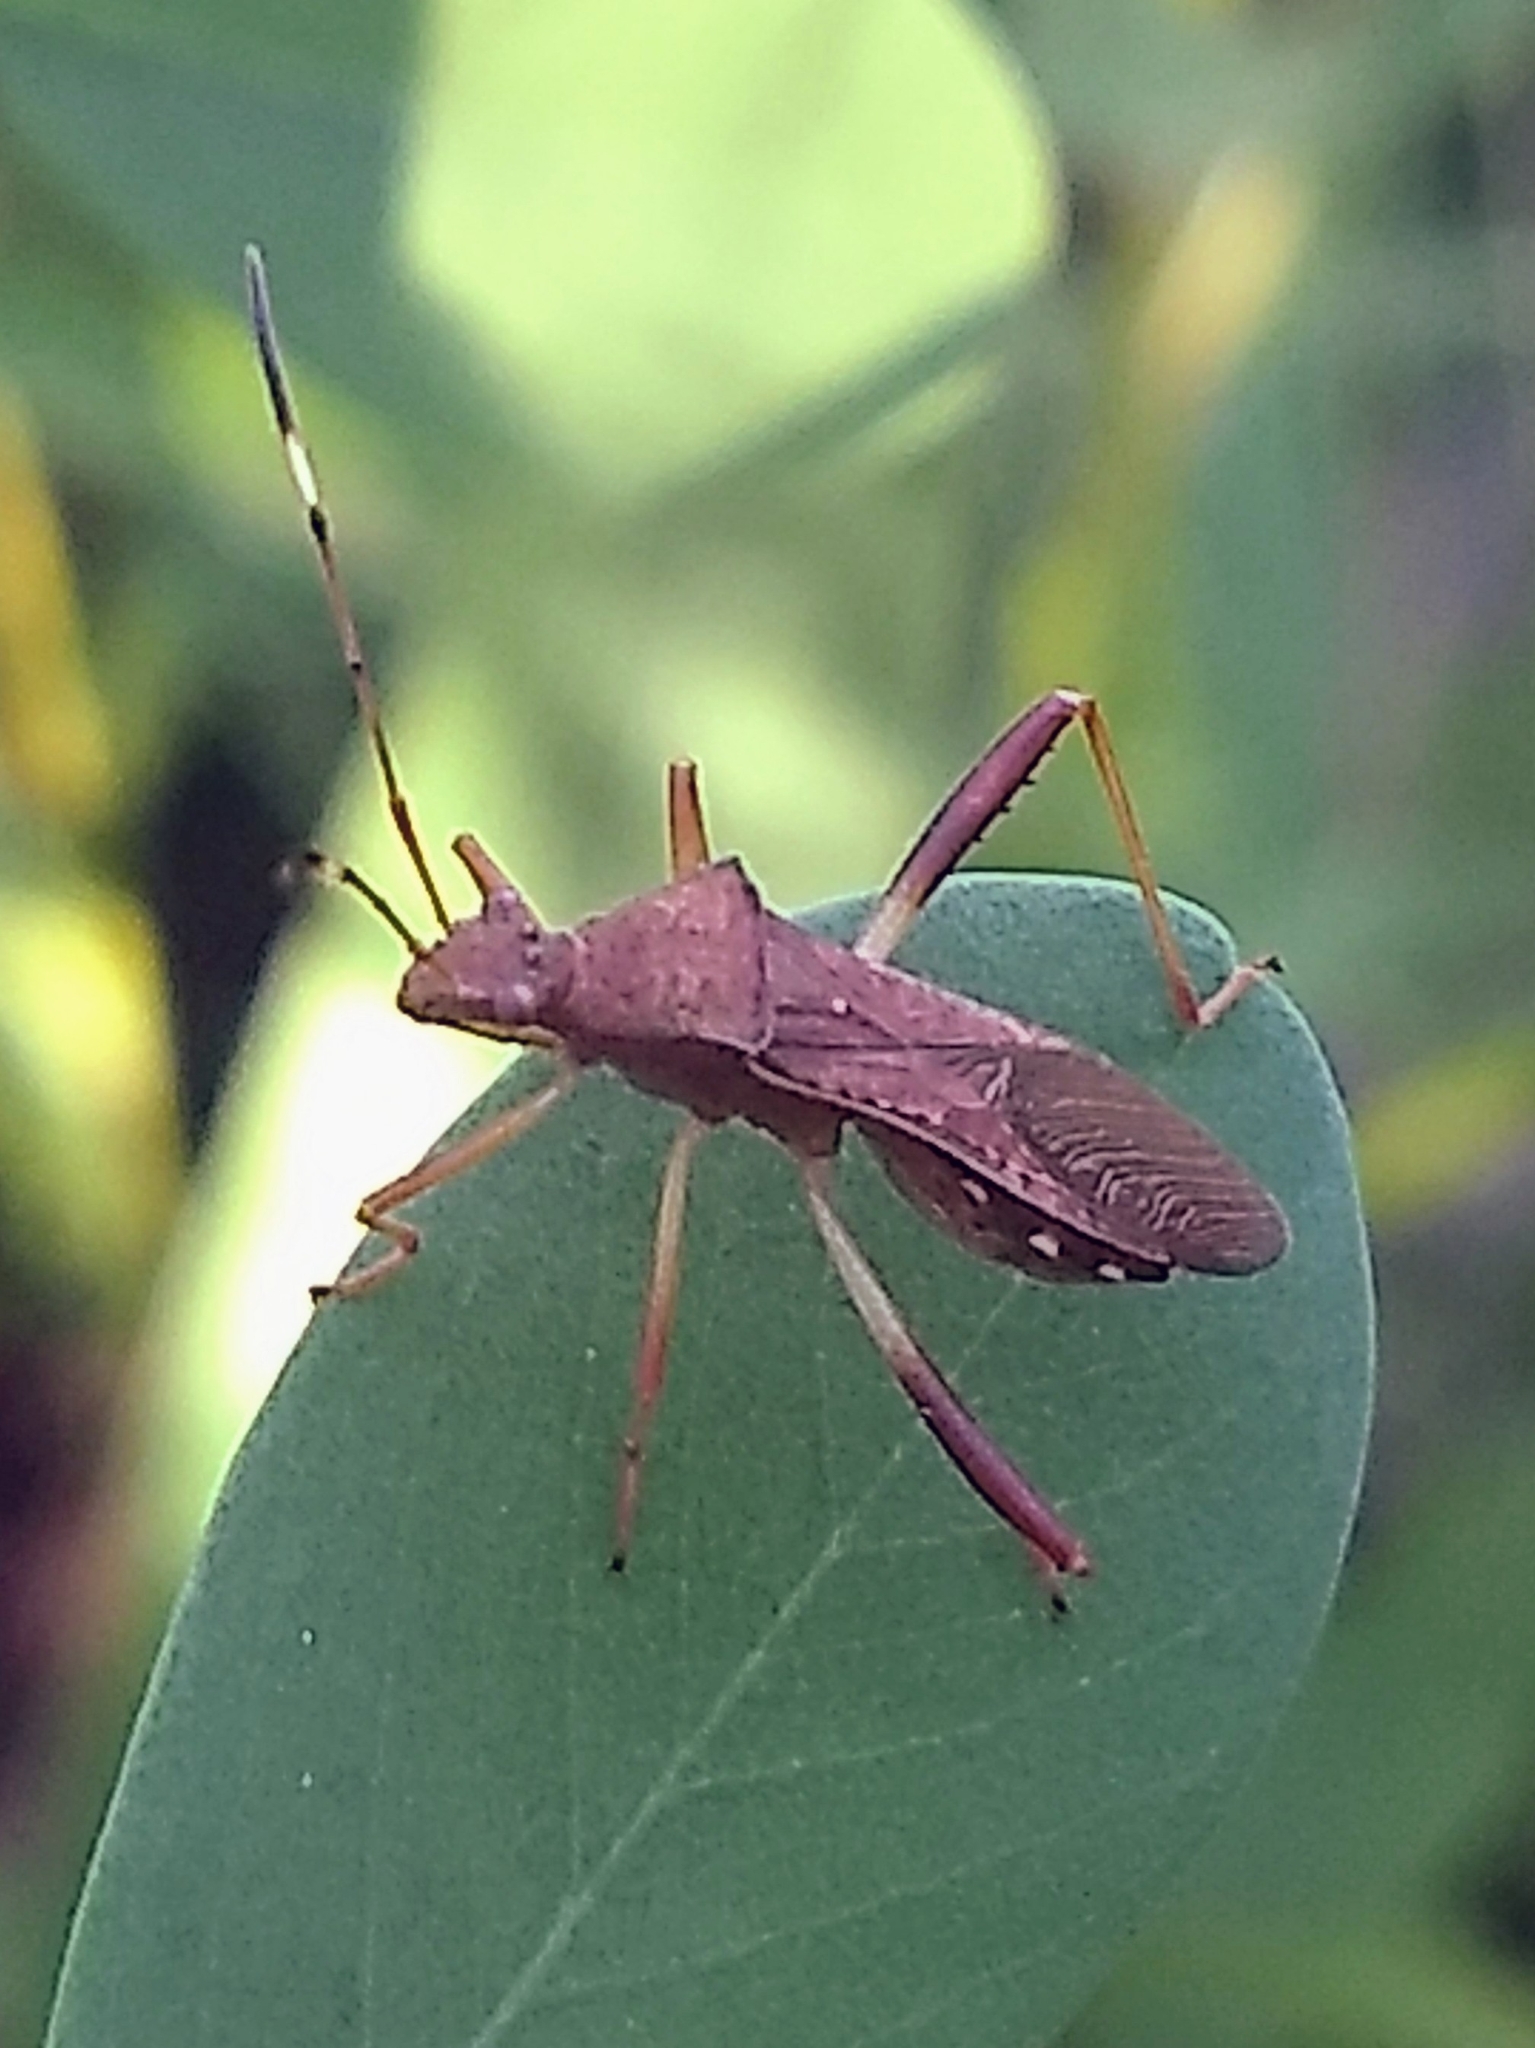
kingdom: Animalia
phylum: Arthropoda
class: Insecta
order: Hemiptera
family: Alydidae
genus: Megalotomus
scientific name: Megalotomus quinquespinosus
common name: Lupine bug
